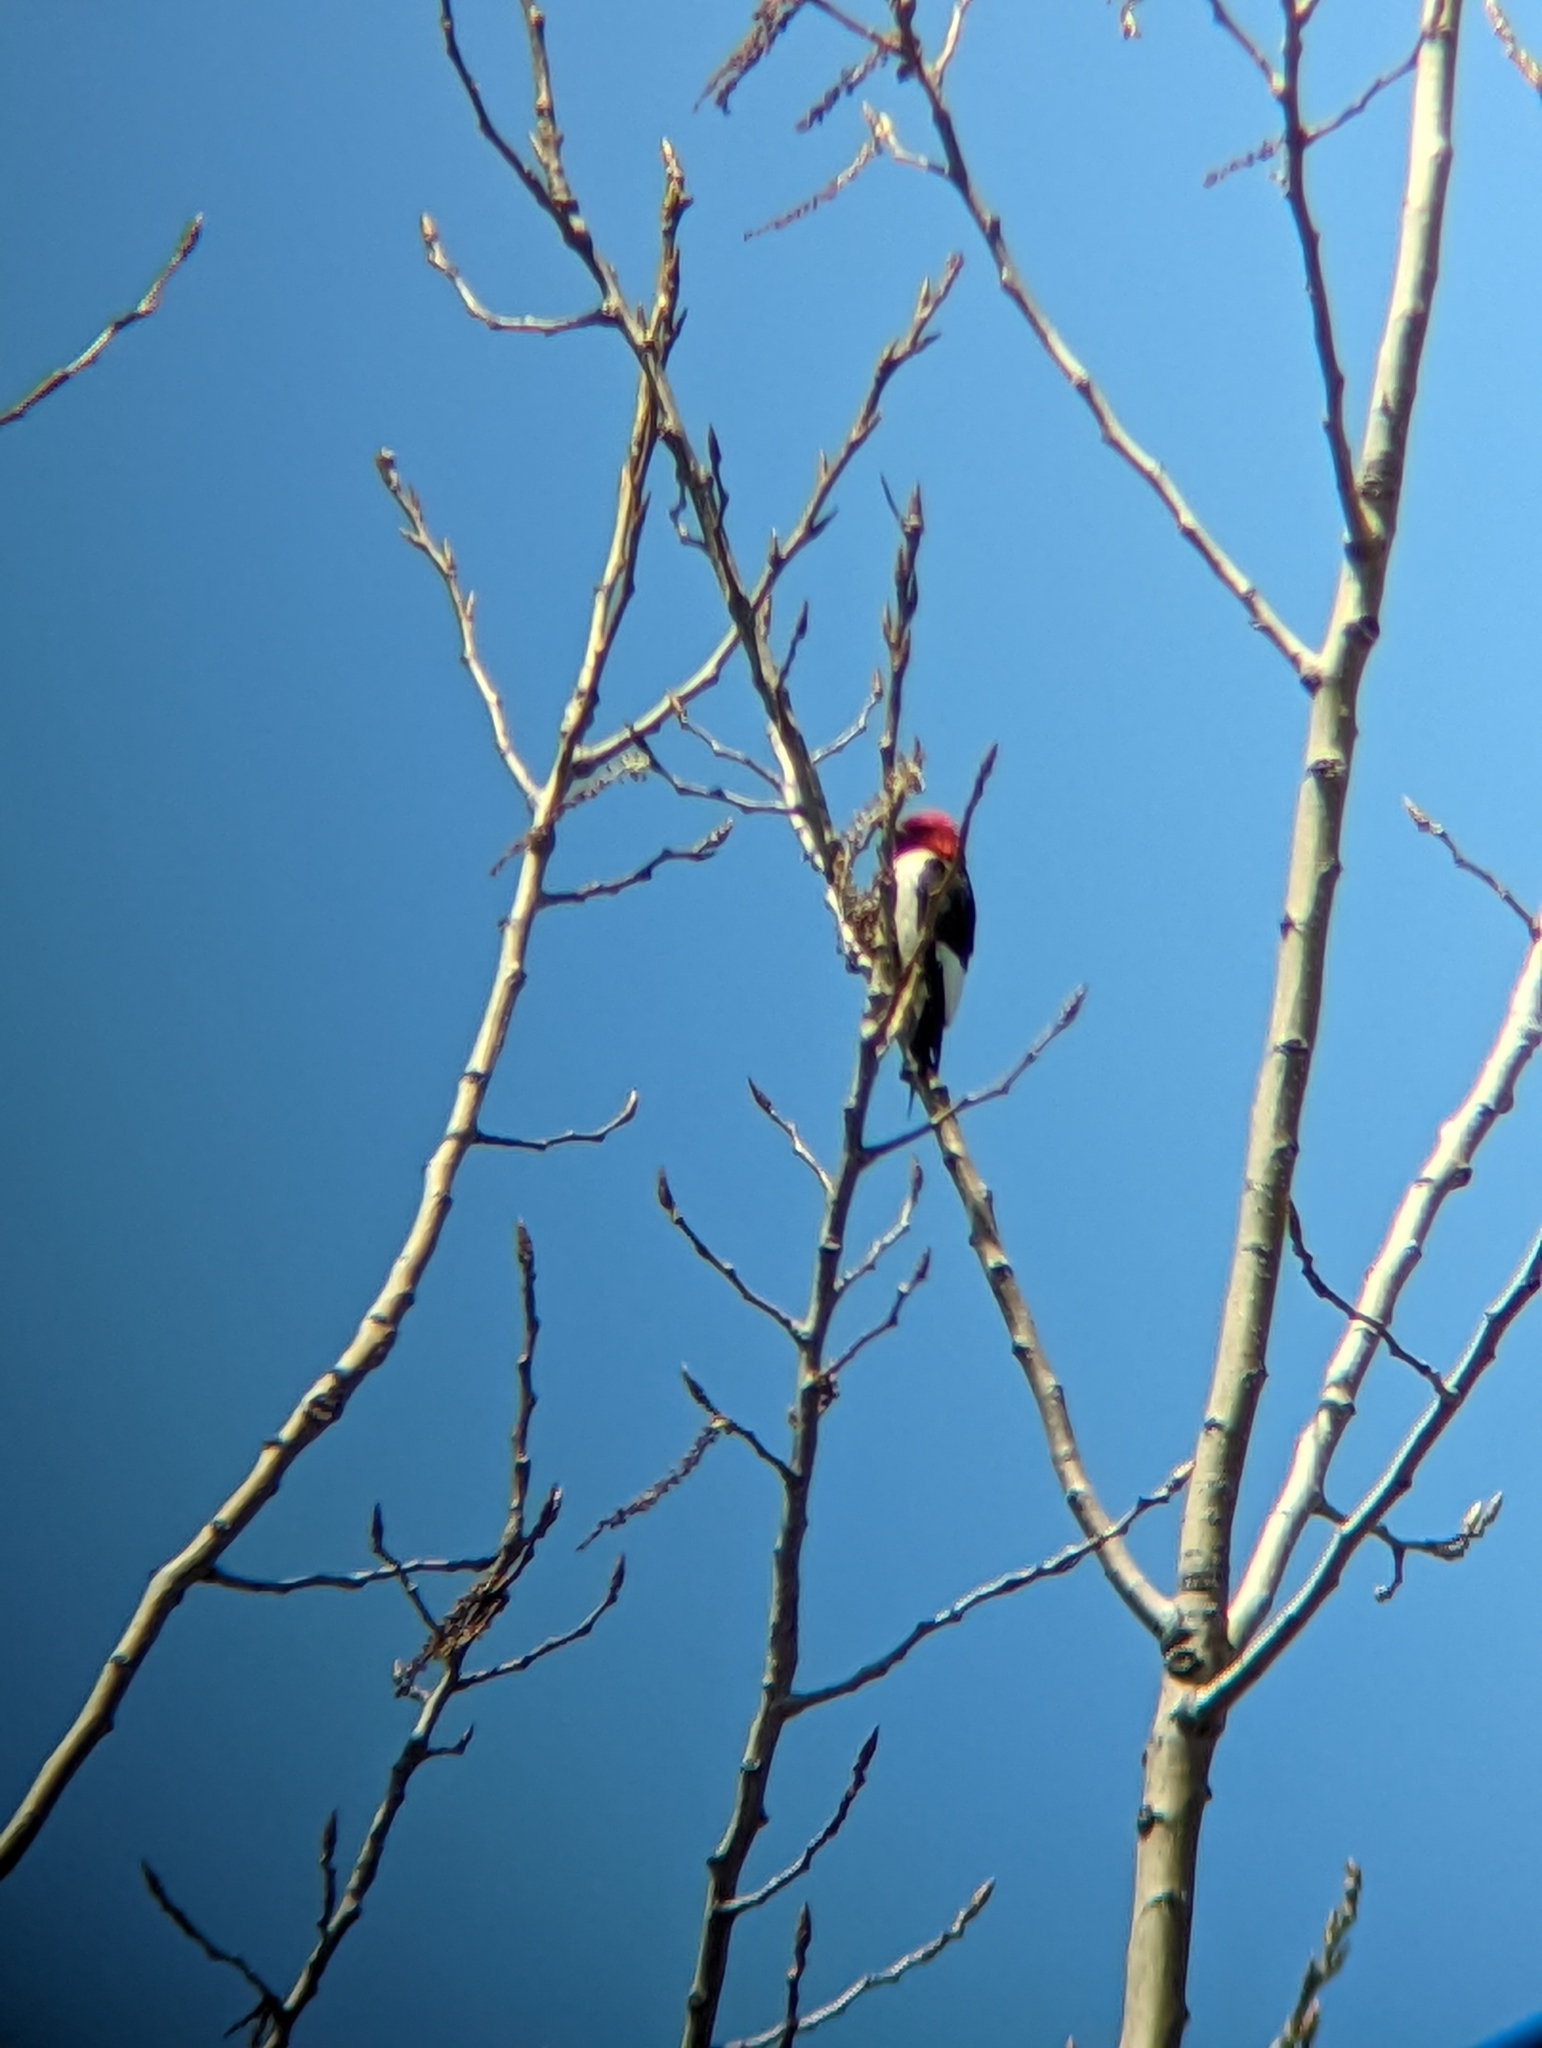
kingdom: Animalia
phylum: Chordata
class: Aves
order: Piciformes
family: Picidae
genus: Melanerpes
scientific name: Melanerpes erythrocephalus
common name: Red-headed woodpecker
